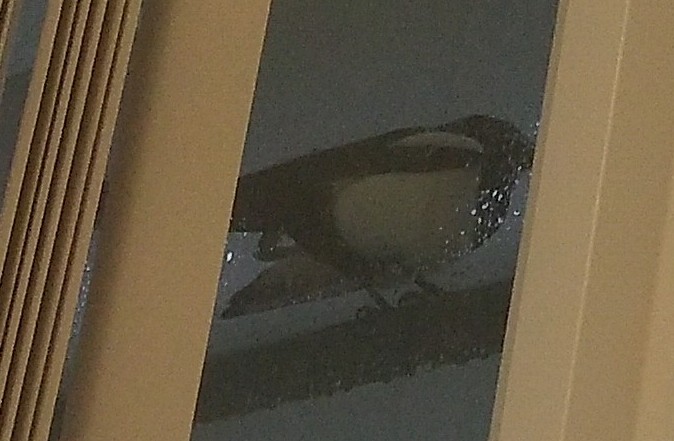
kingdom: Animalia
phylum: Chordata
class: Aves
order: Passeriformes
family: Corvidae
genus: Pica
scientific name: Pica pica
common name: Eurasian magpie
